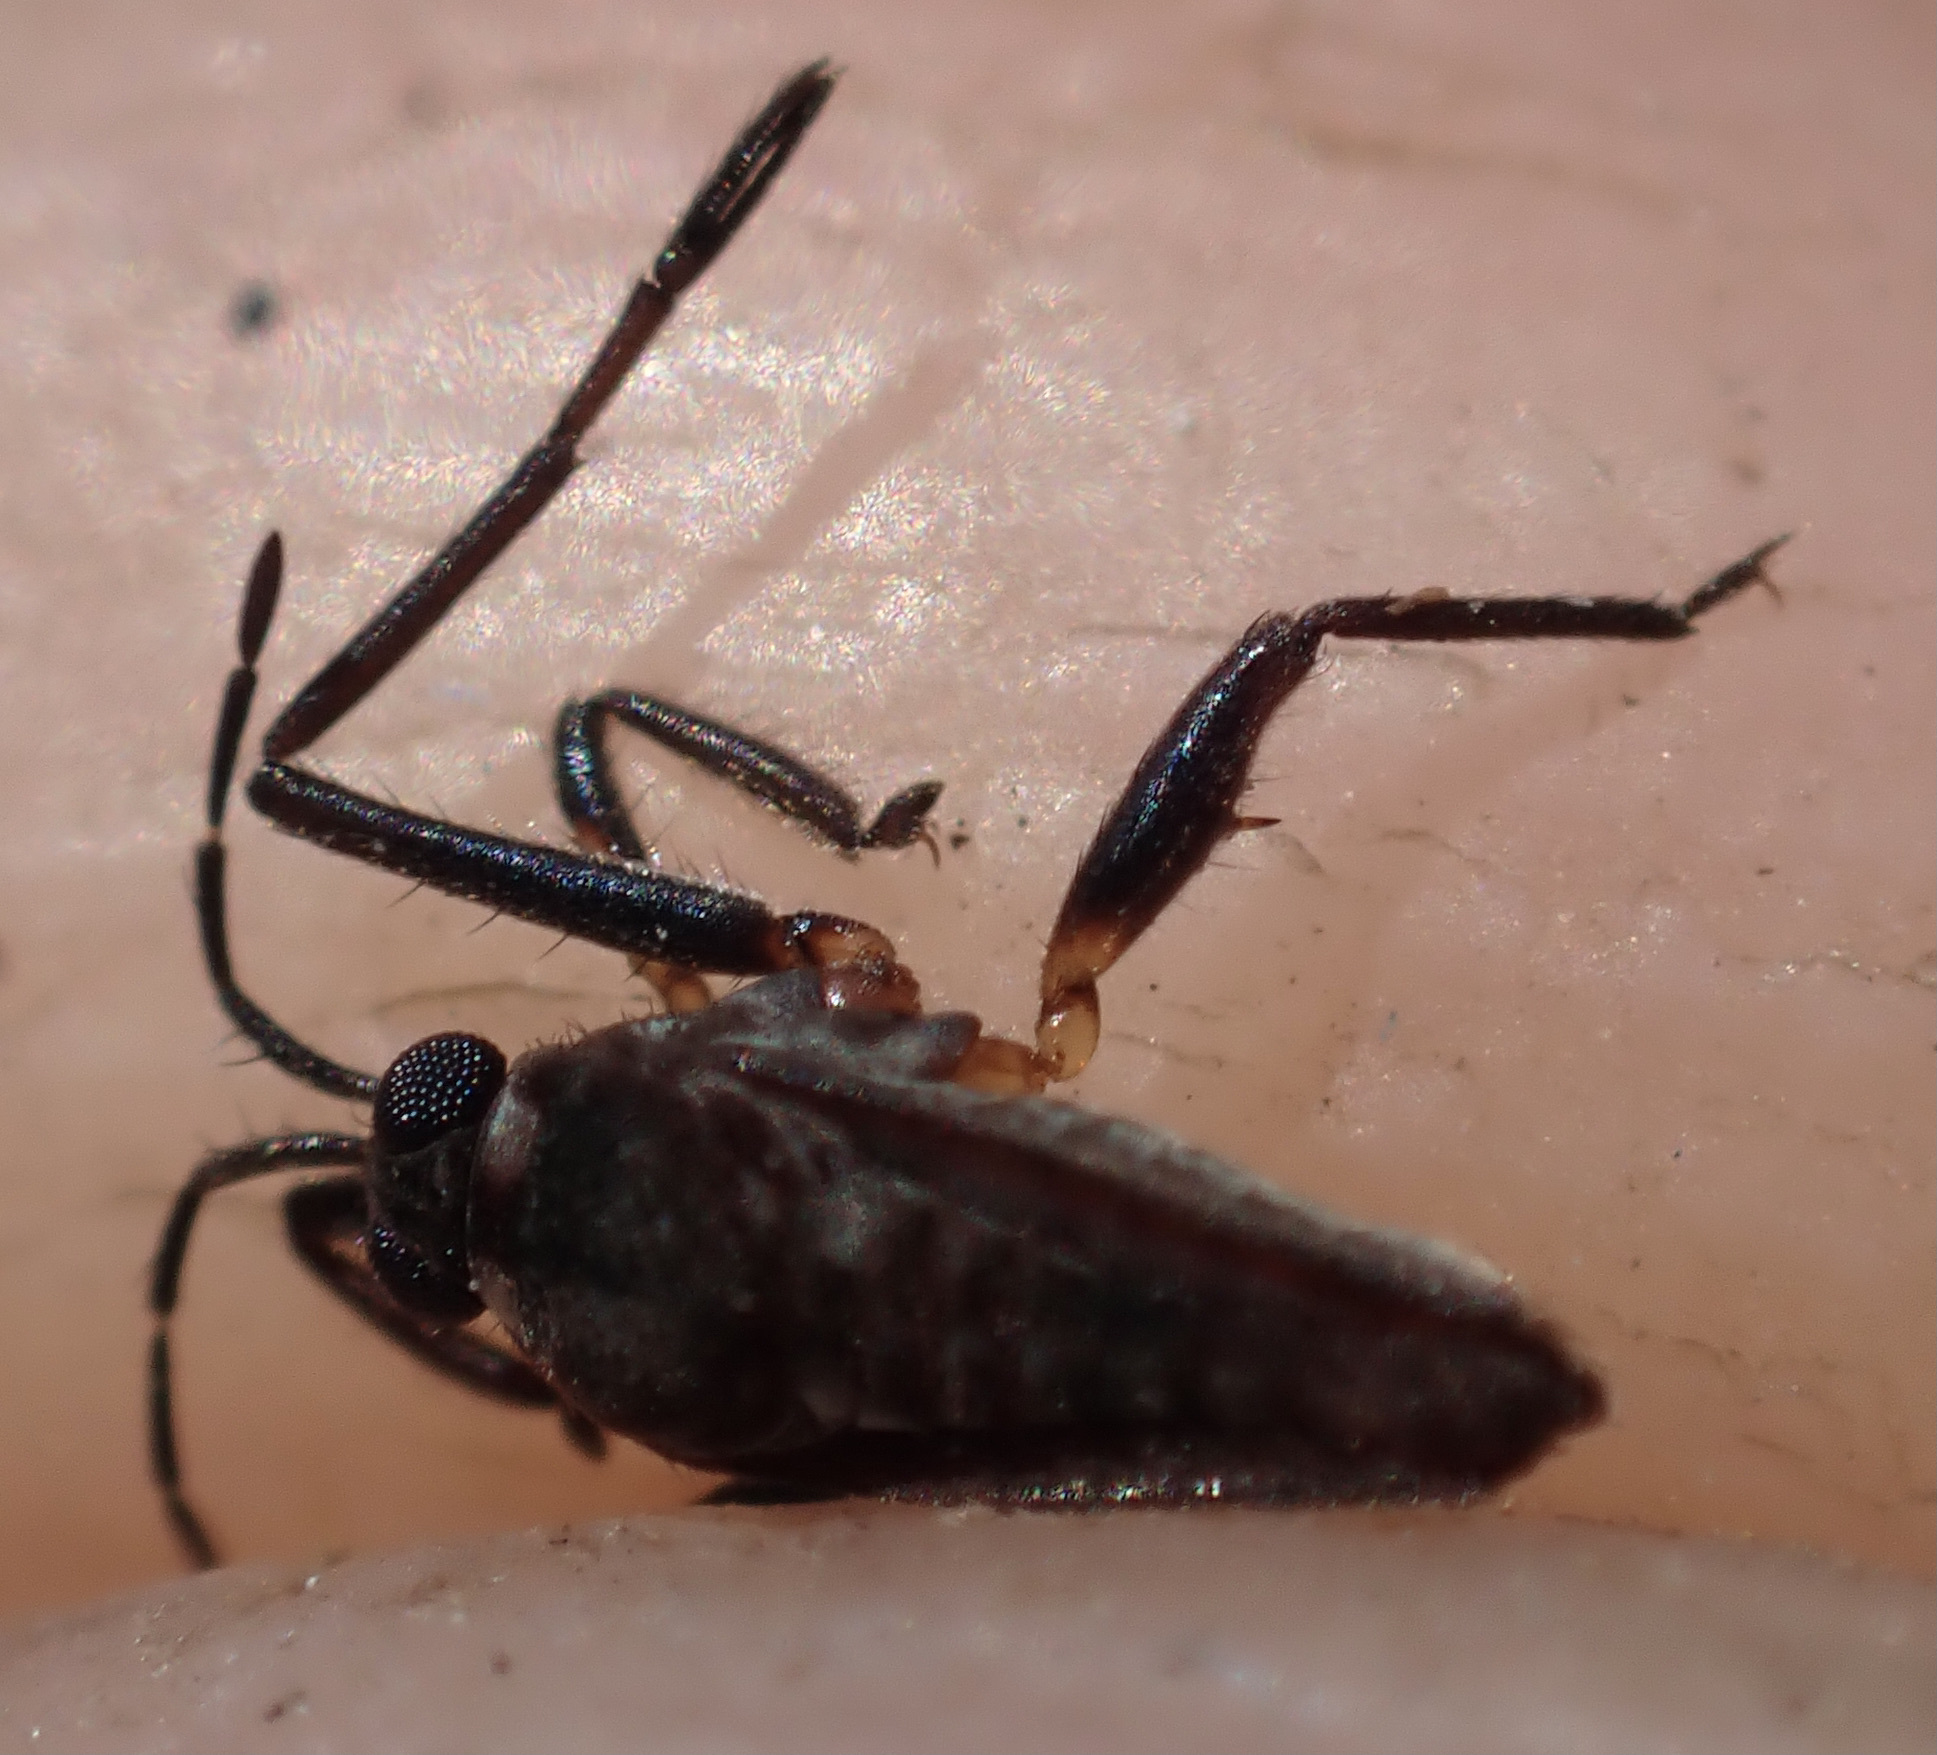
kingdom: Animalia
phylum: Arthropoda
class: Insecta
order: Hemiptera
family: Veliidae
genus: Rhagovelia
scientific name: Rhagovelia
